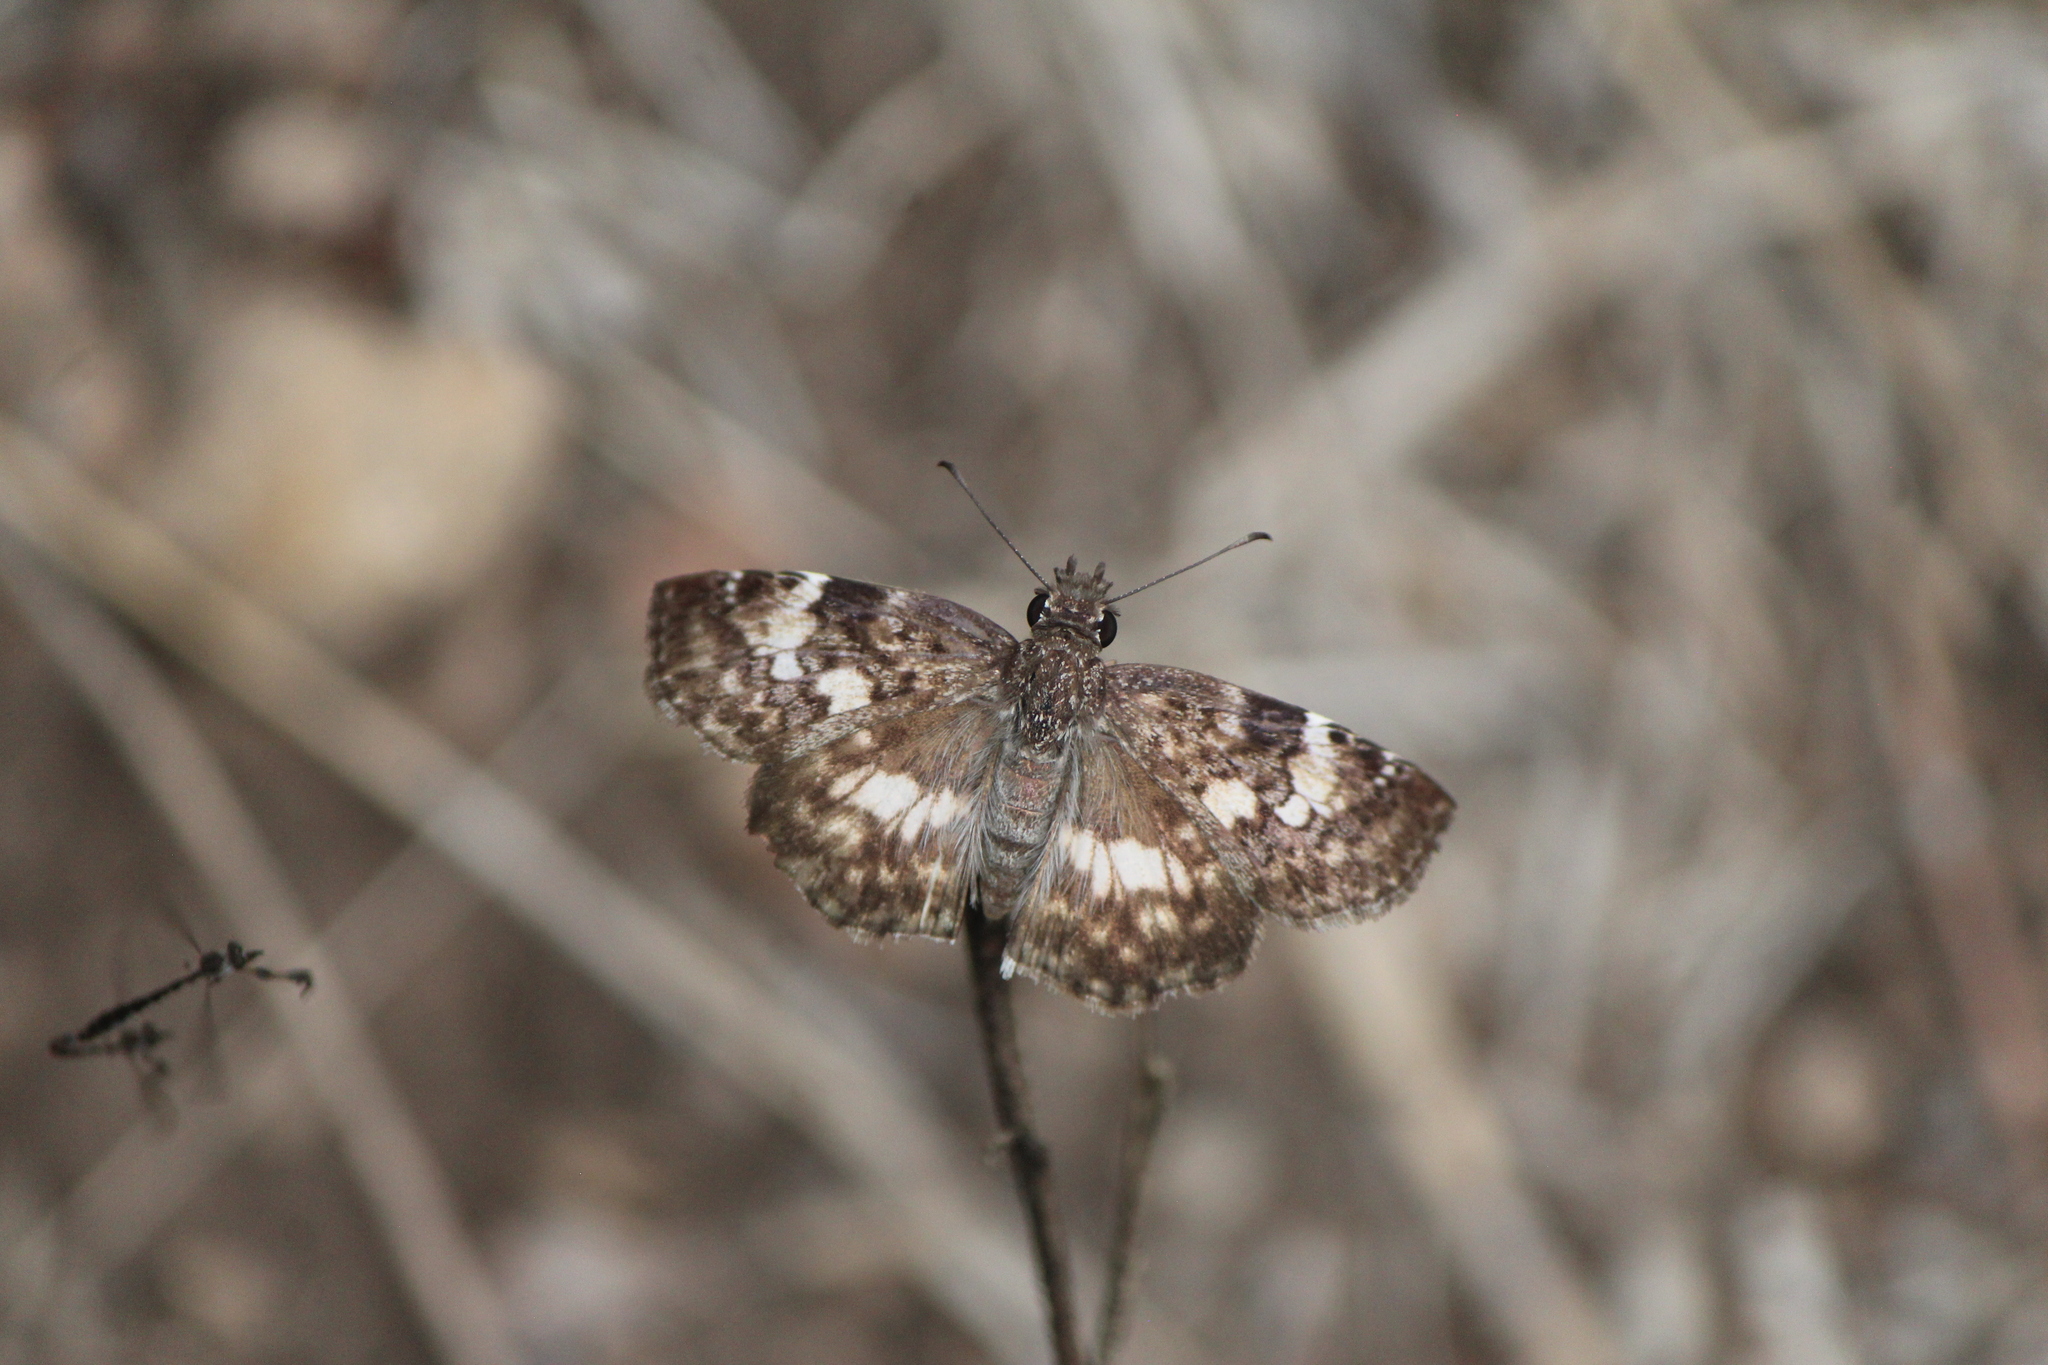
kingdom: Animalia
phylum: Arthropoda
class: Insecta
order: Lepidoptera
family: Hesperiidae
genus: Chiothion
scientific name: Chiothion georgina
